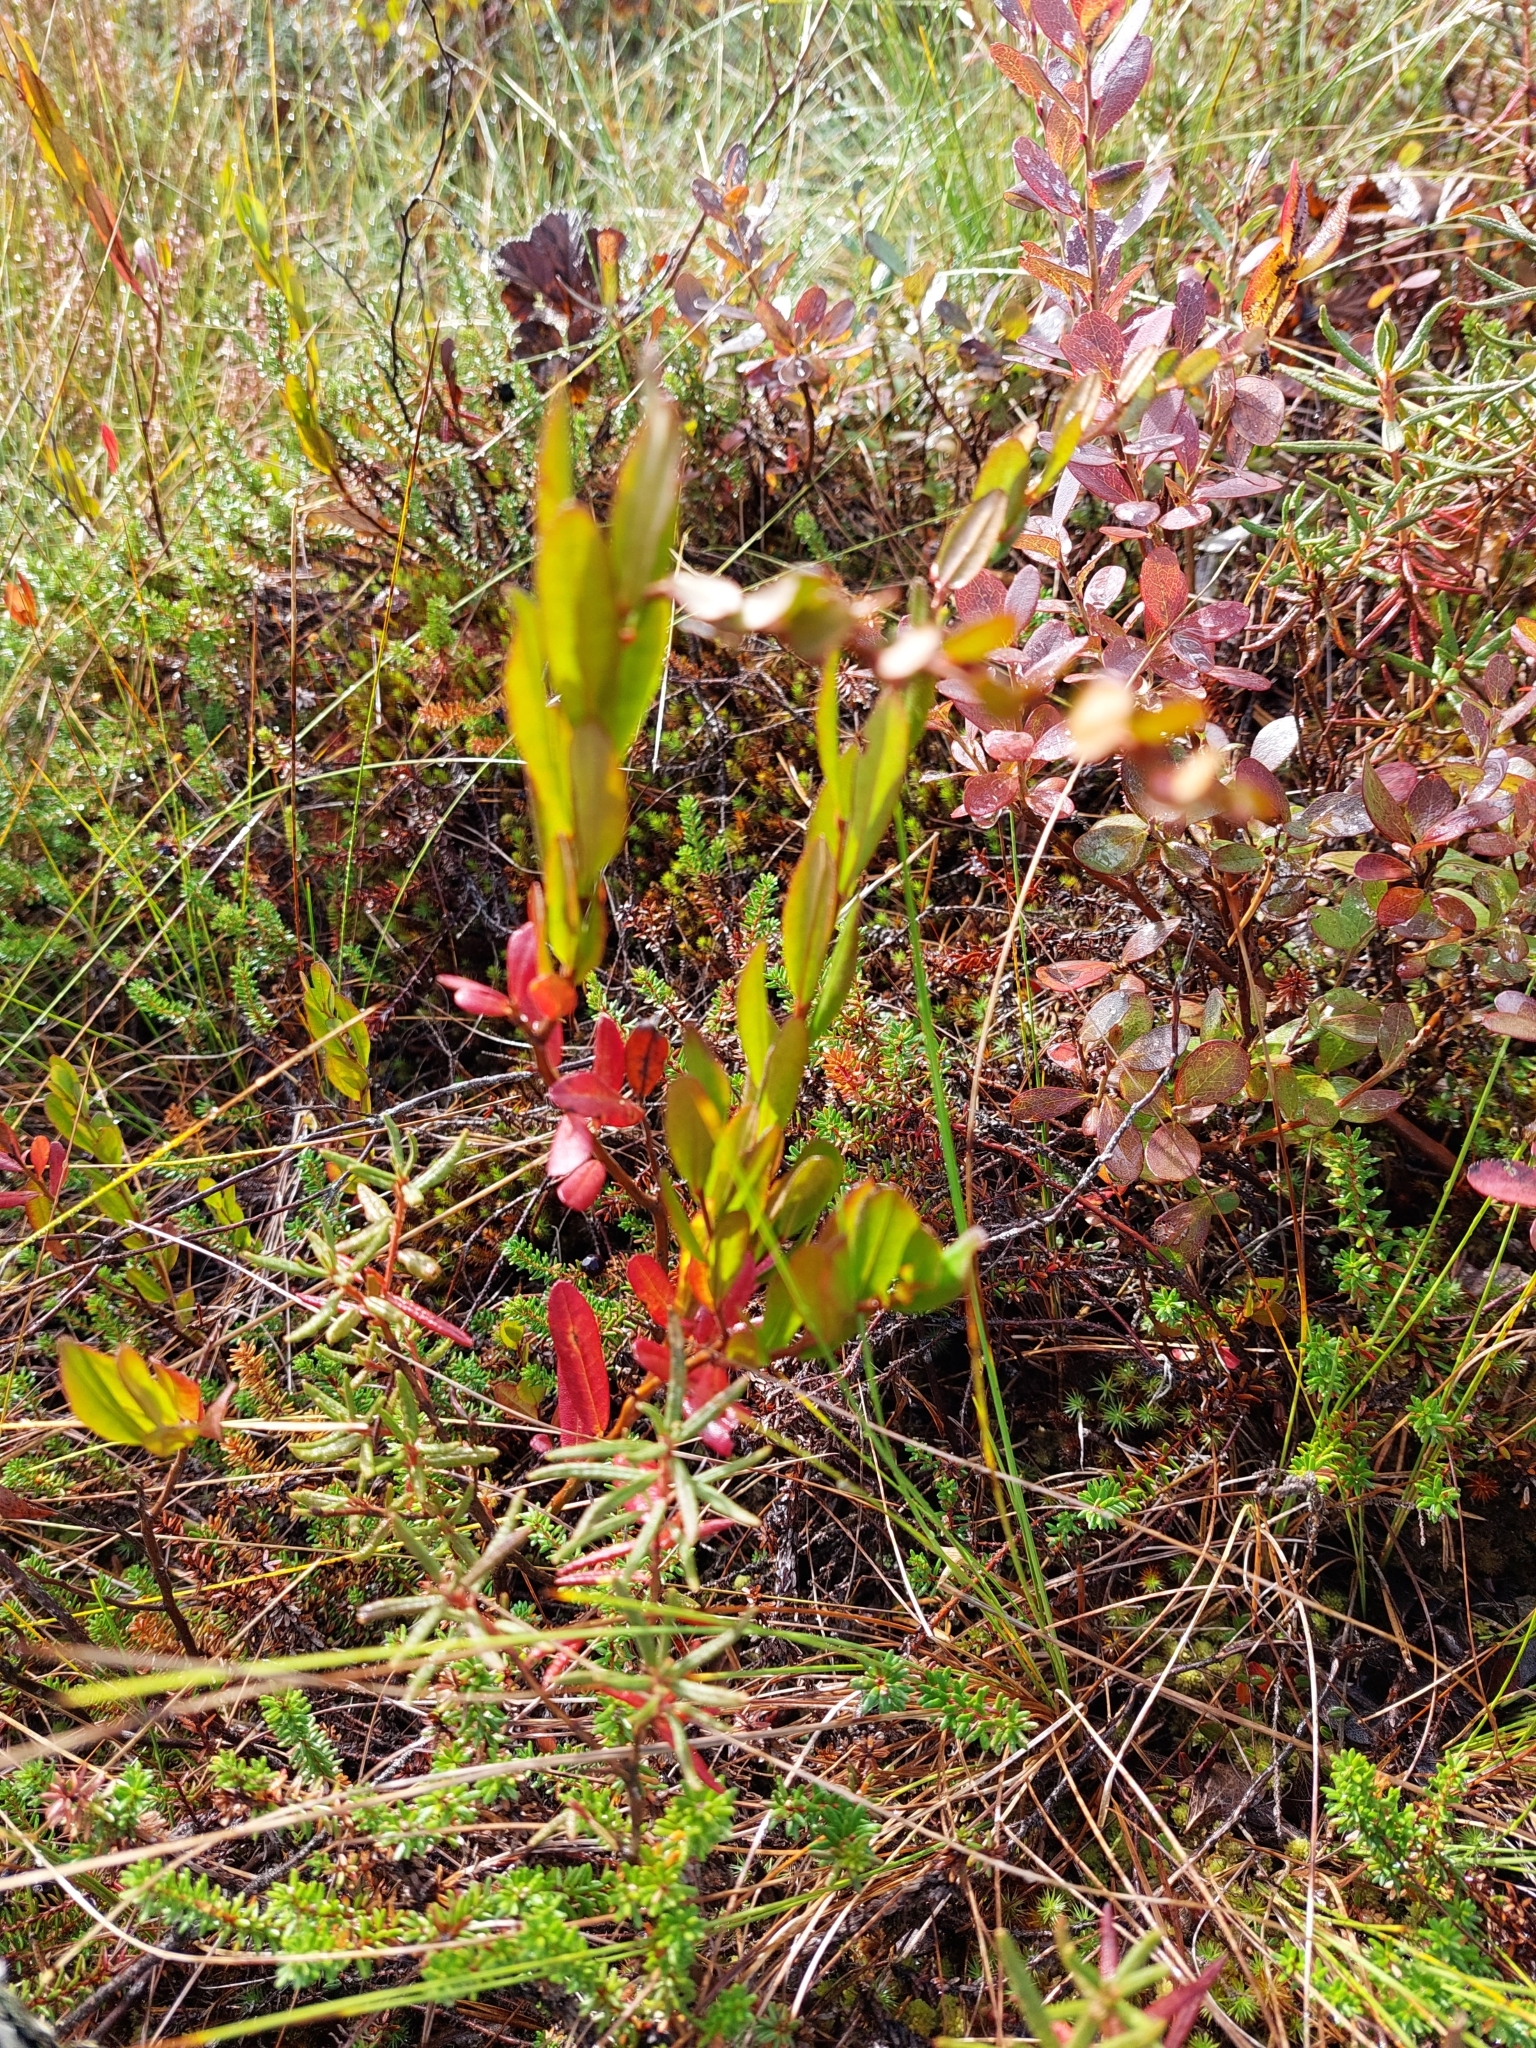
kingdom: Plantae
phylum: Tracheophyta
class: Magnoliopsida
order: Ericales
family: Ericaceae
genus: Chamaedaphne
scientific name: Chamaedaphne calyculata
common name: Leatherleaf
